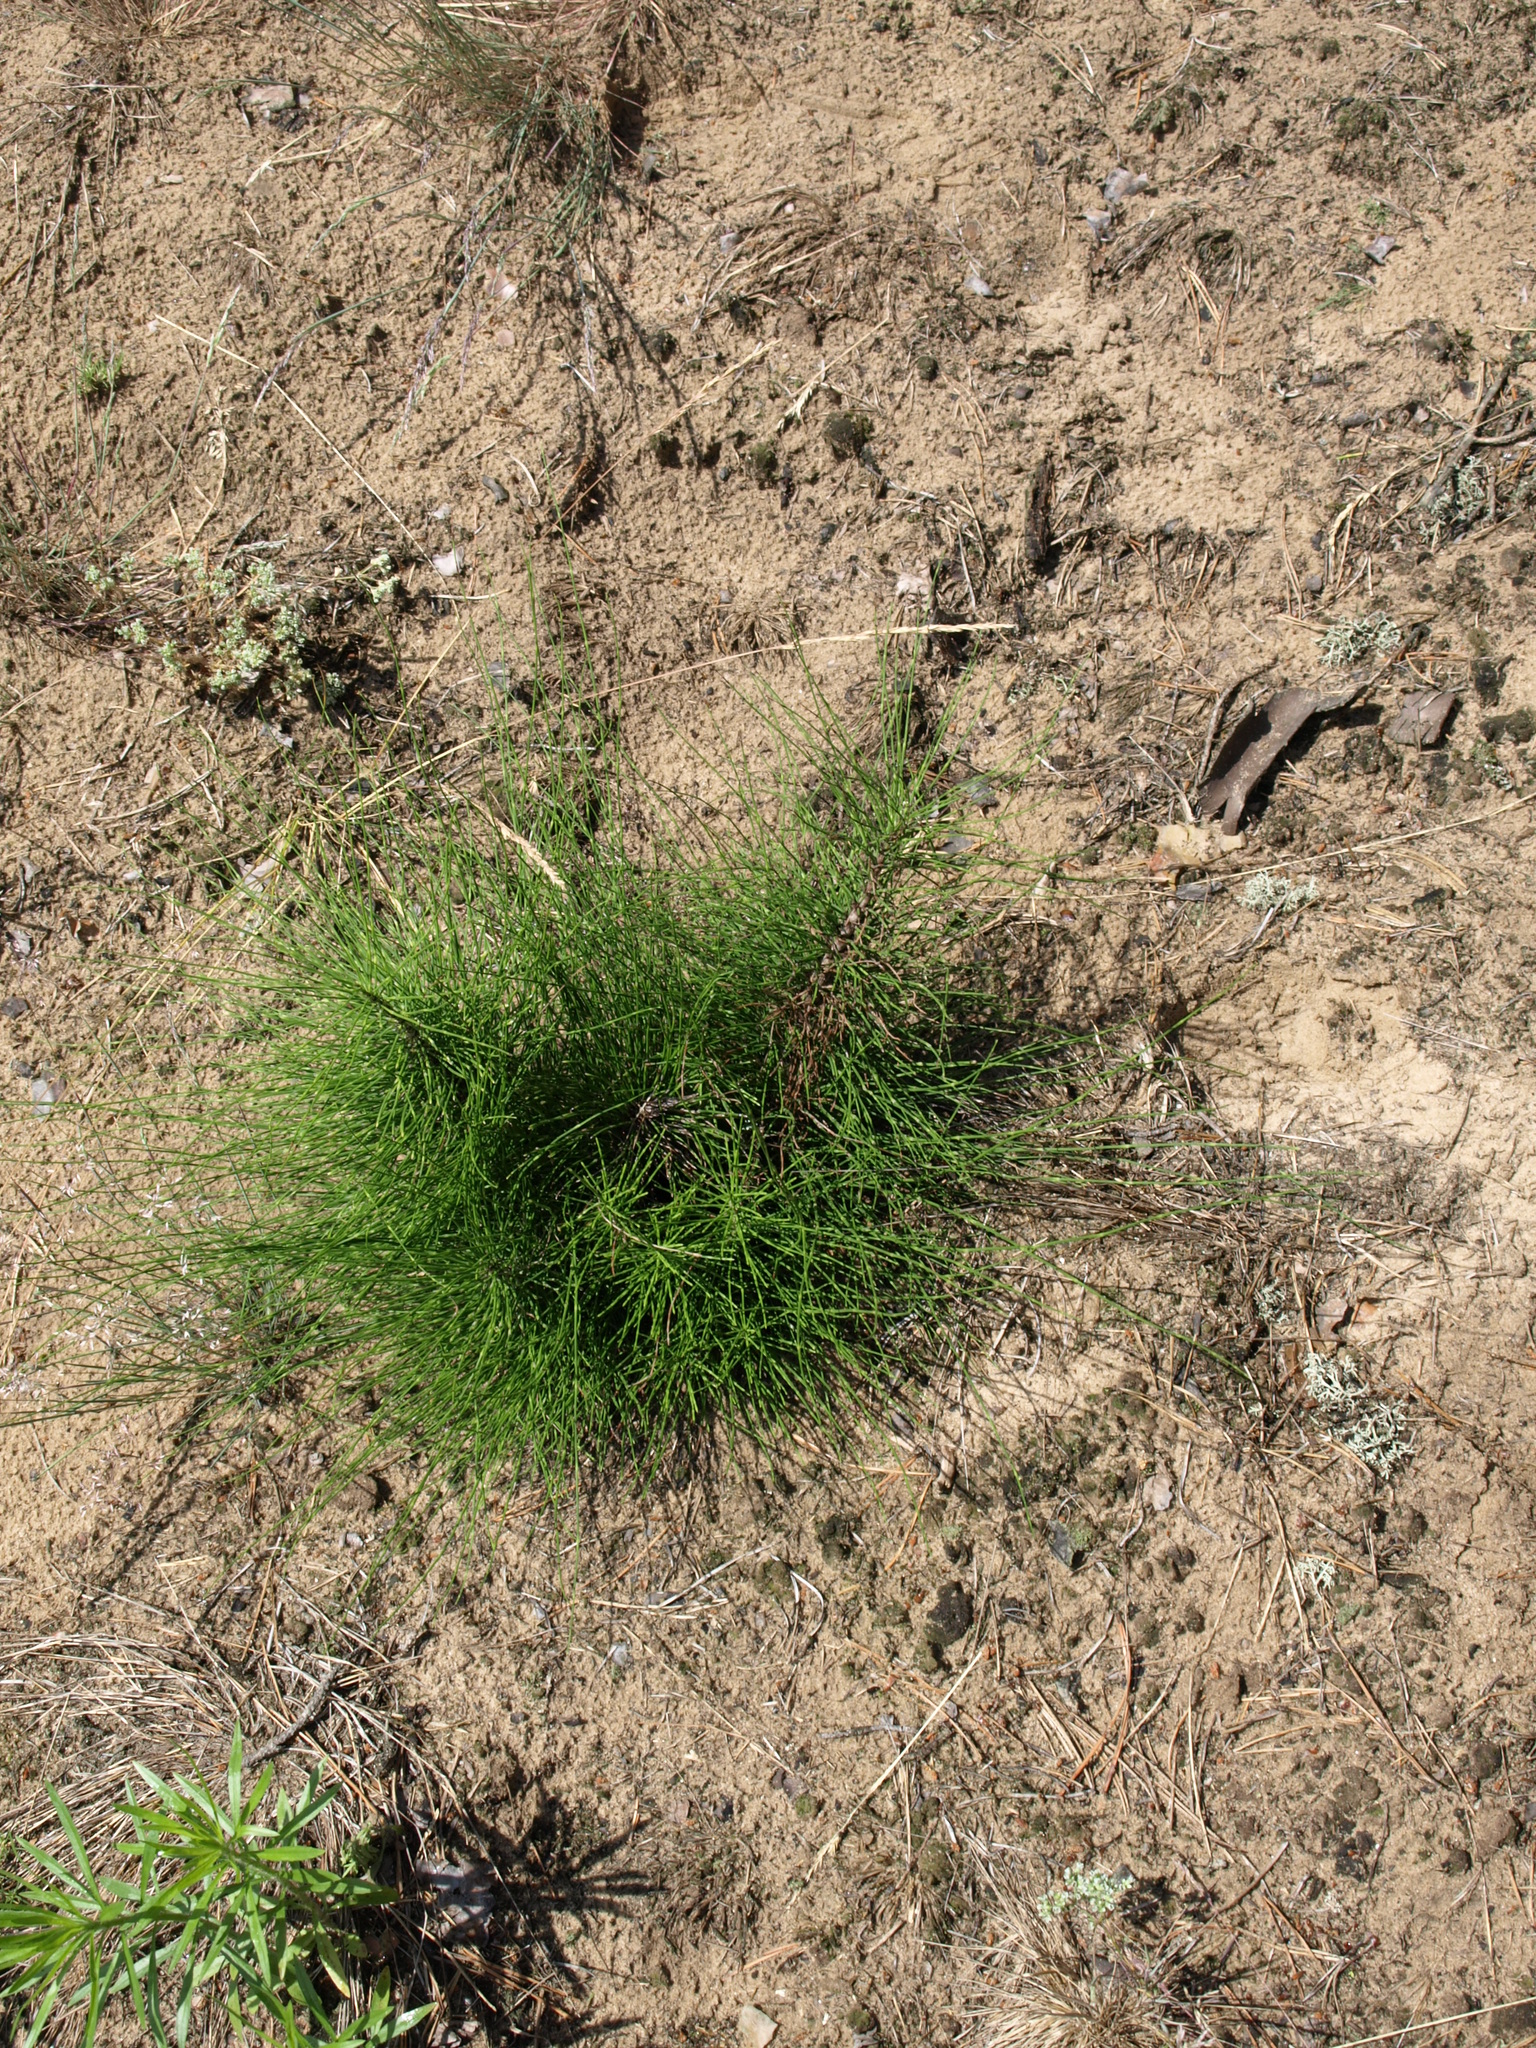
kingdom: Plantae
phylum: Tracheophyta
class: Polypodiopsida
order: Equisetales
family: Equisetaceae
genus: Equisetum
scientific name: Equisetum telmateia
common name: Great horsetail
